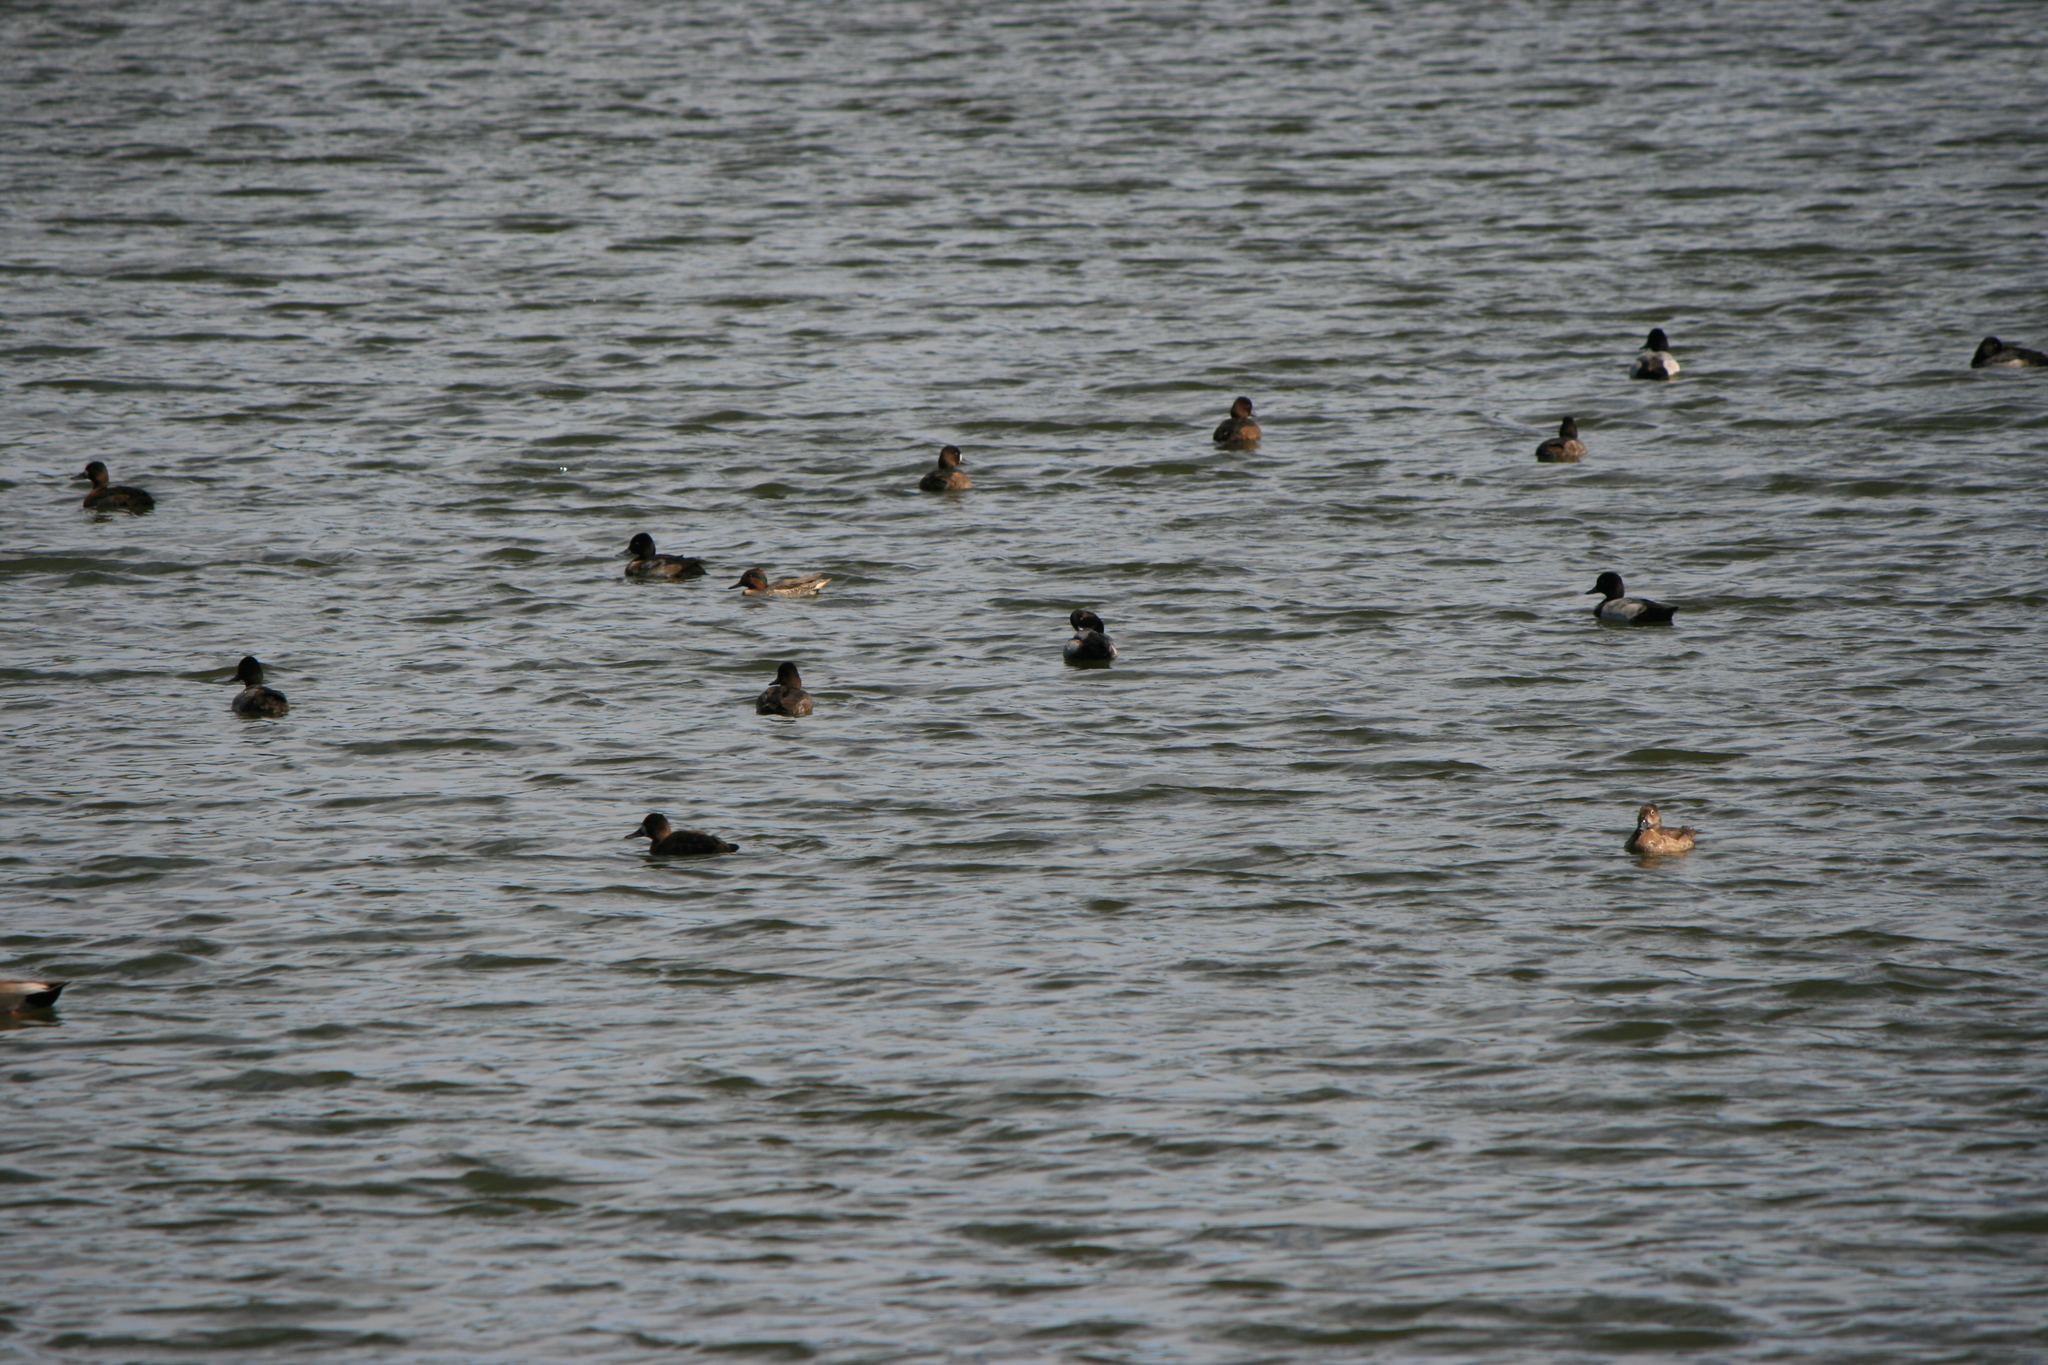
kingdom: Animalia
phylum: Chordata
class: Aves
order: Anseriformes
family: Anatidae
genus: Anas
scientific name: Anas crecca
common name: Eurasian teal
